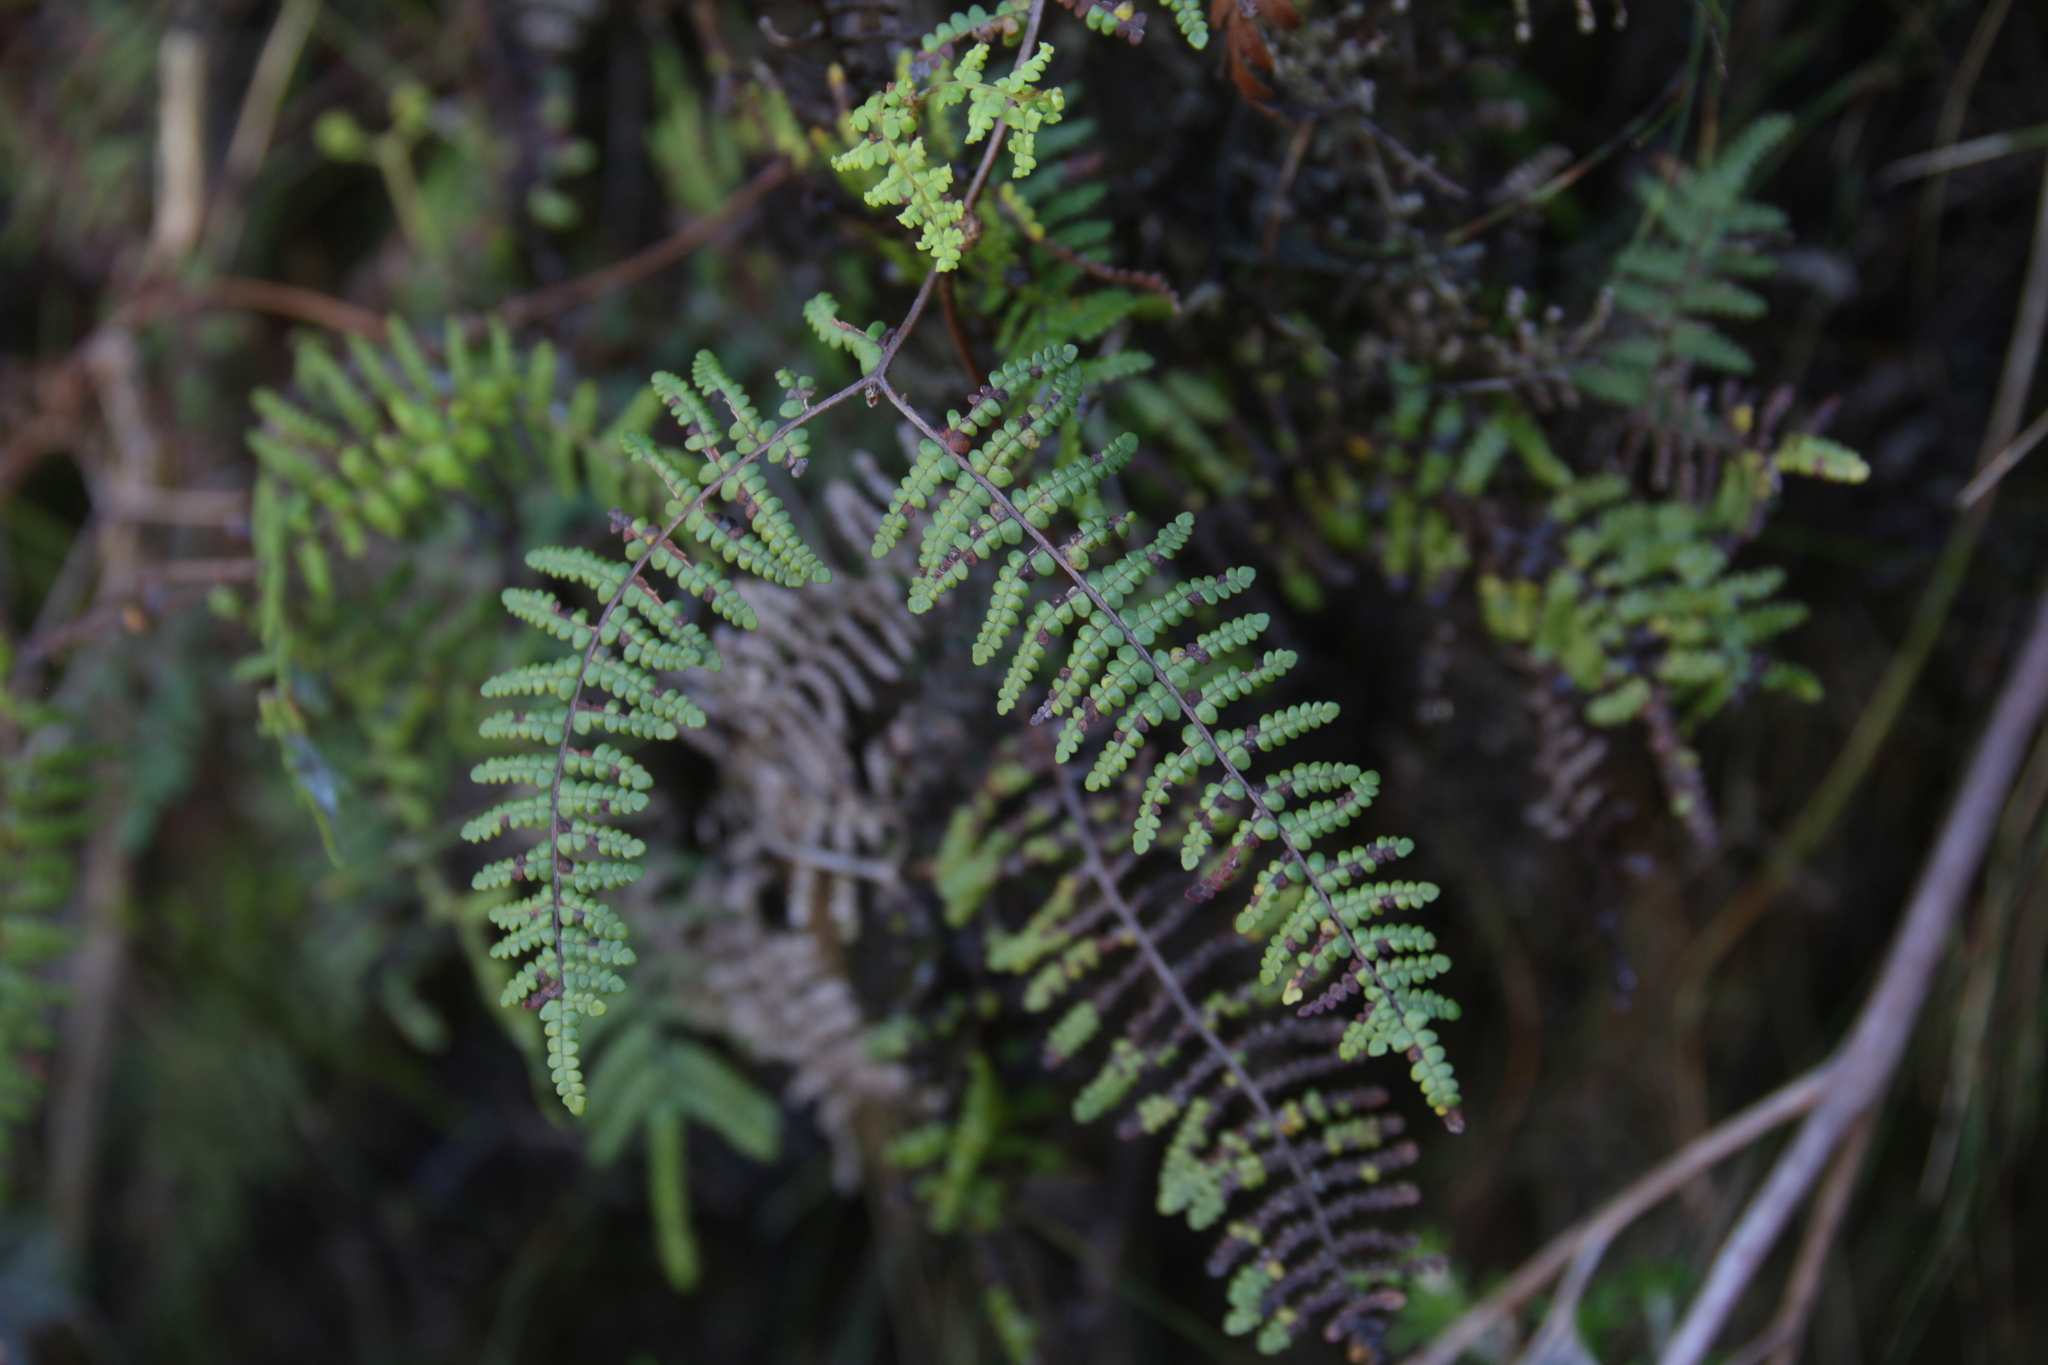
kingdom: Plantae
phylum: Tracheophyta
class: Polypodiopsida
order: Gleicheniales
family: Gleicheniaceae
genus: Gleichenia
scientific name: Gleichenia polypodioides
